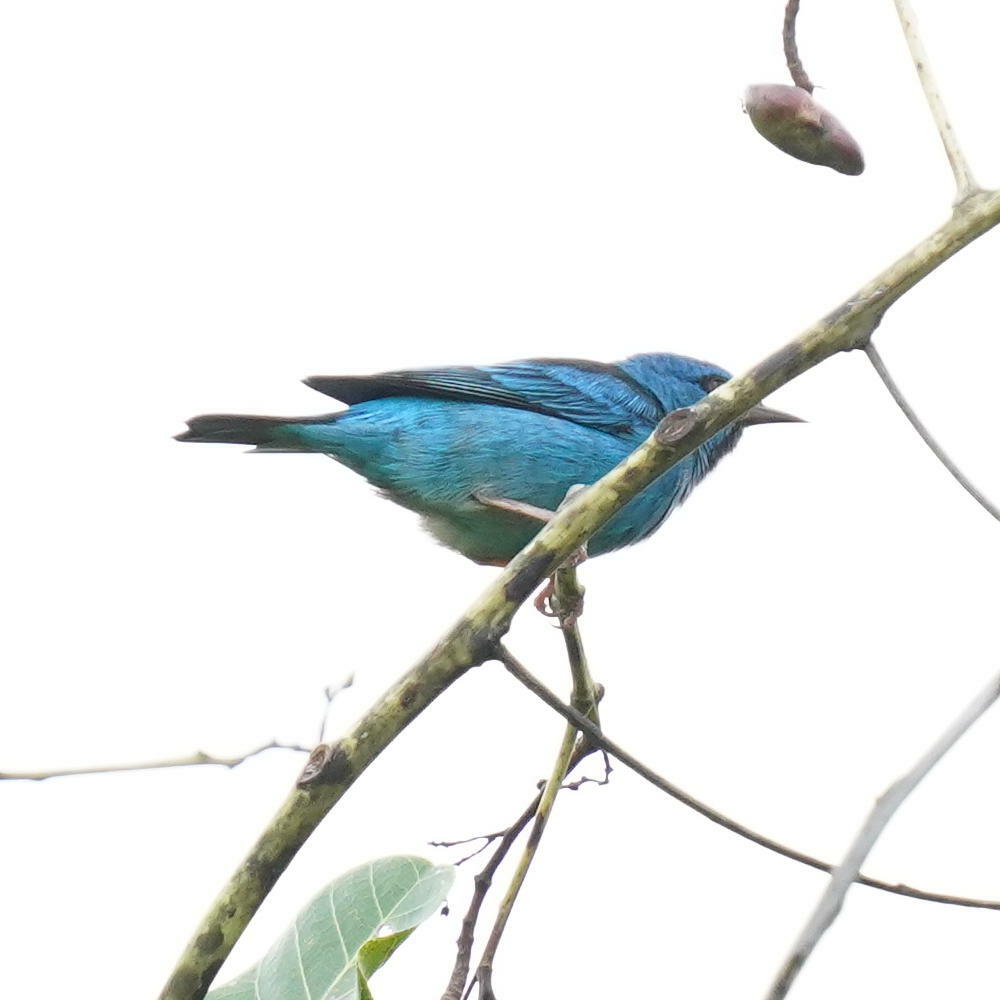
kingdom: Animalia
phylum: Chordata
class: Aves
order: Passeriformes
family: Thraupidae
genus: Dacnis
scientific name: Dacnis cayana
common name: Blue dacnis
